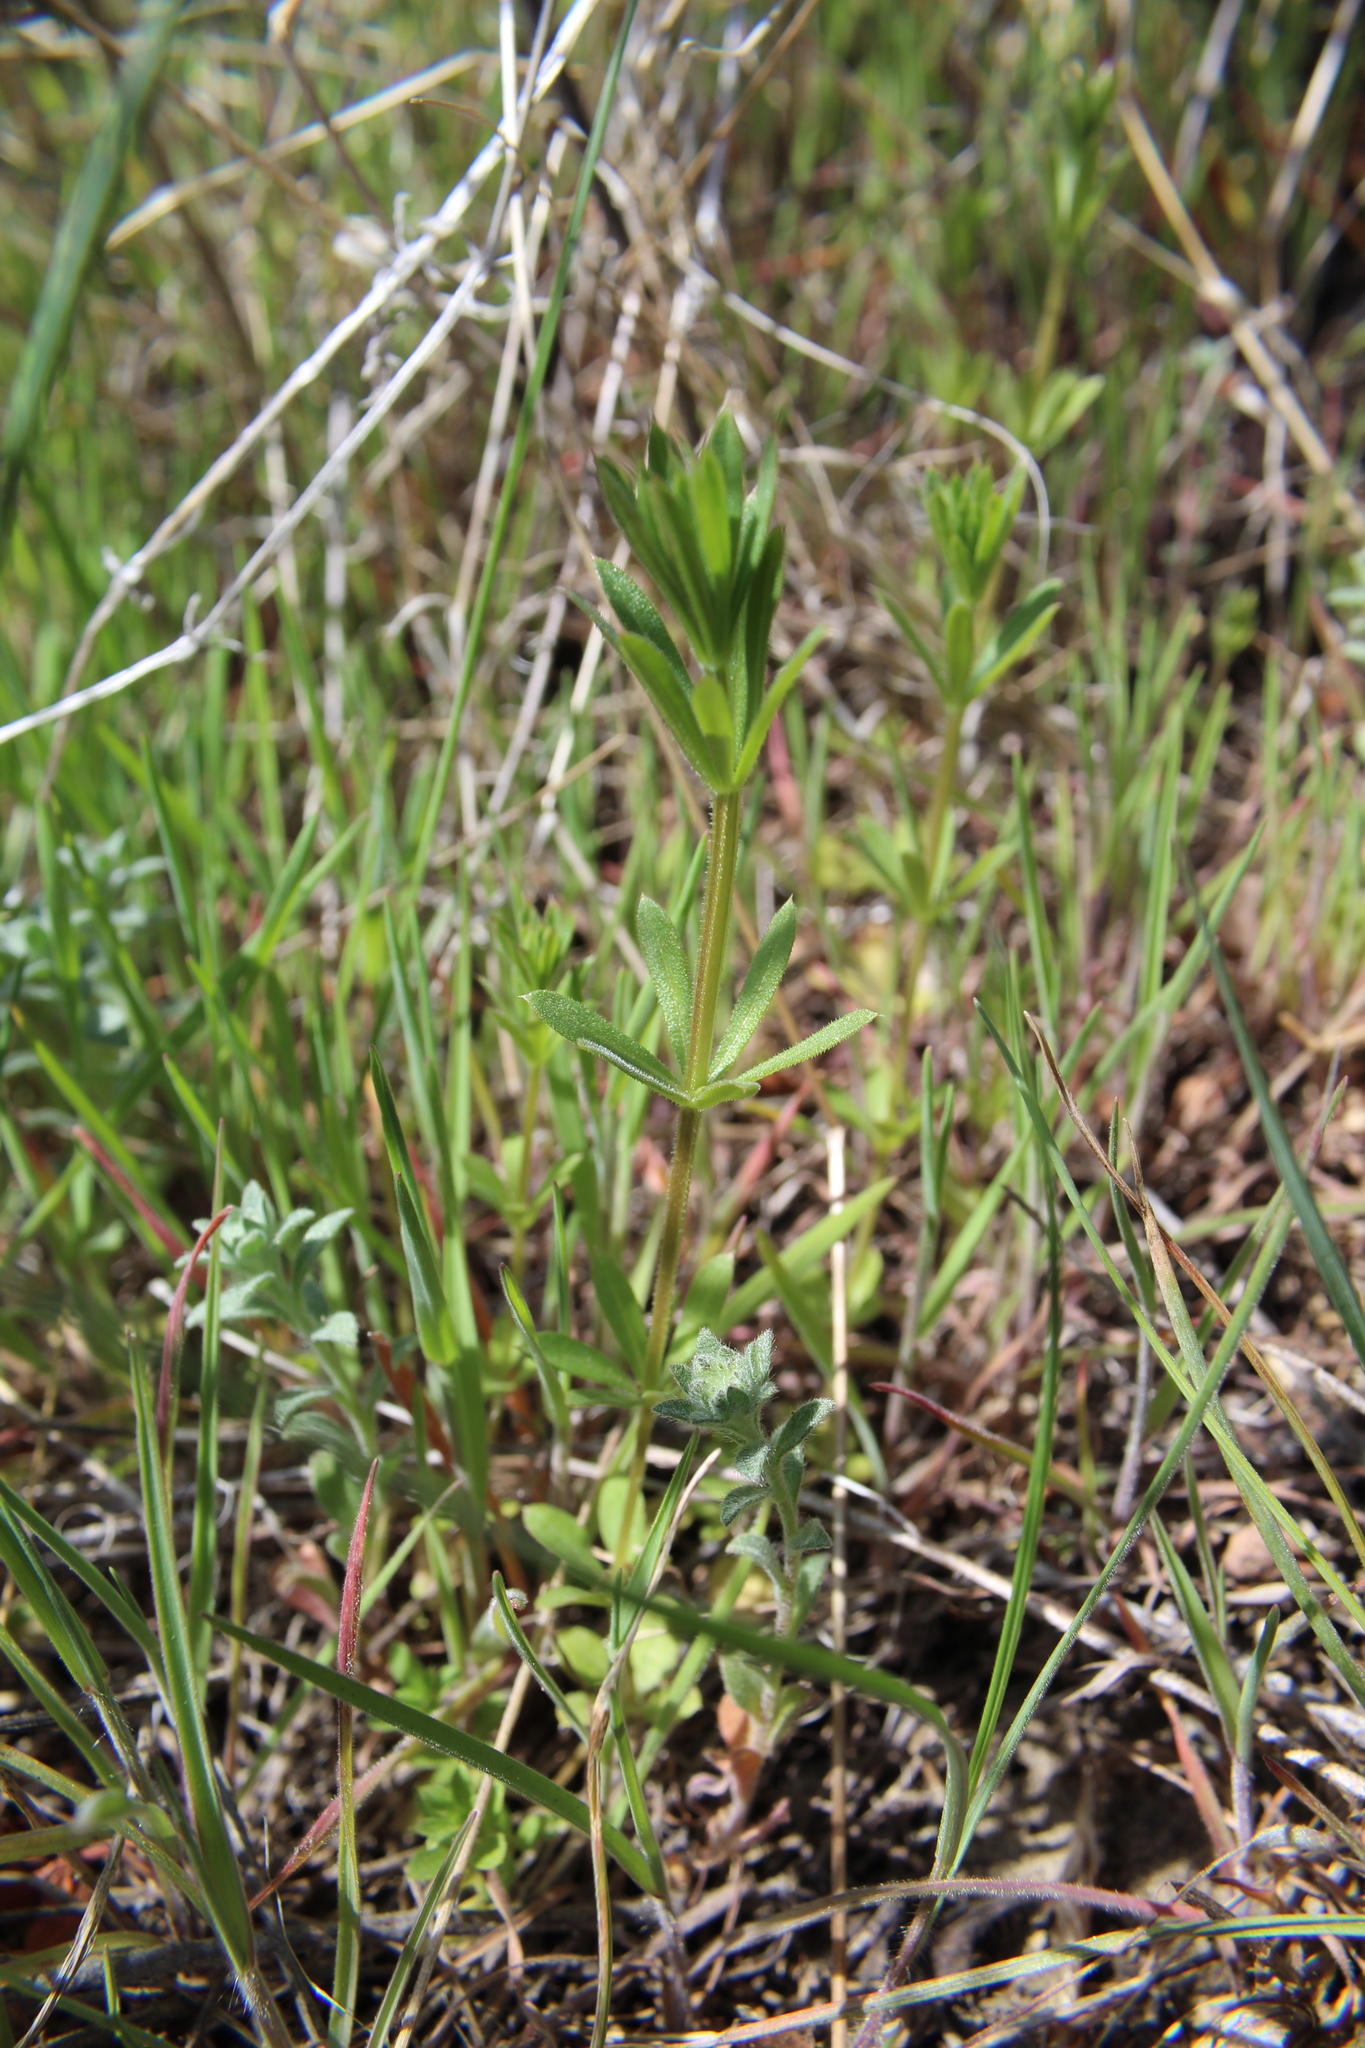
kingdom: Plantae
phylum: Tracheophyta
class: Magnoliopsida
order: Gentianales
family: Rubiaceae
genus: Galium
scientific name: Galium aparine
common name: Cleavers
